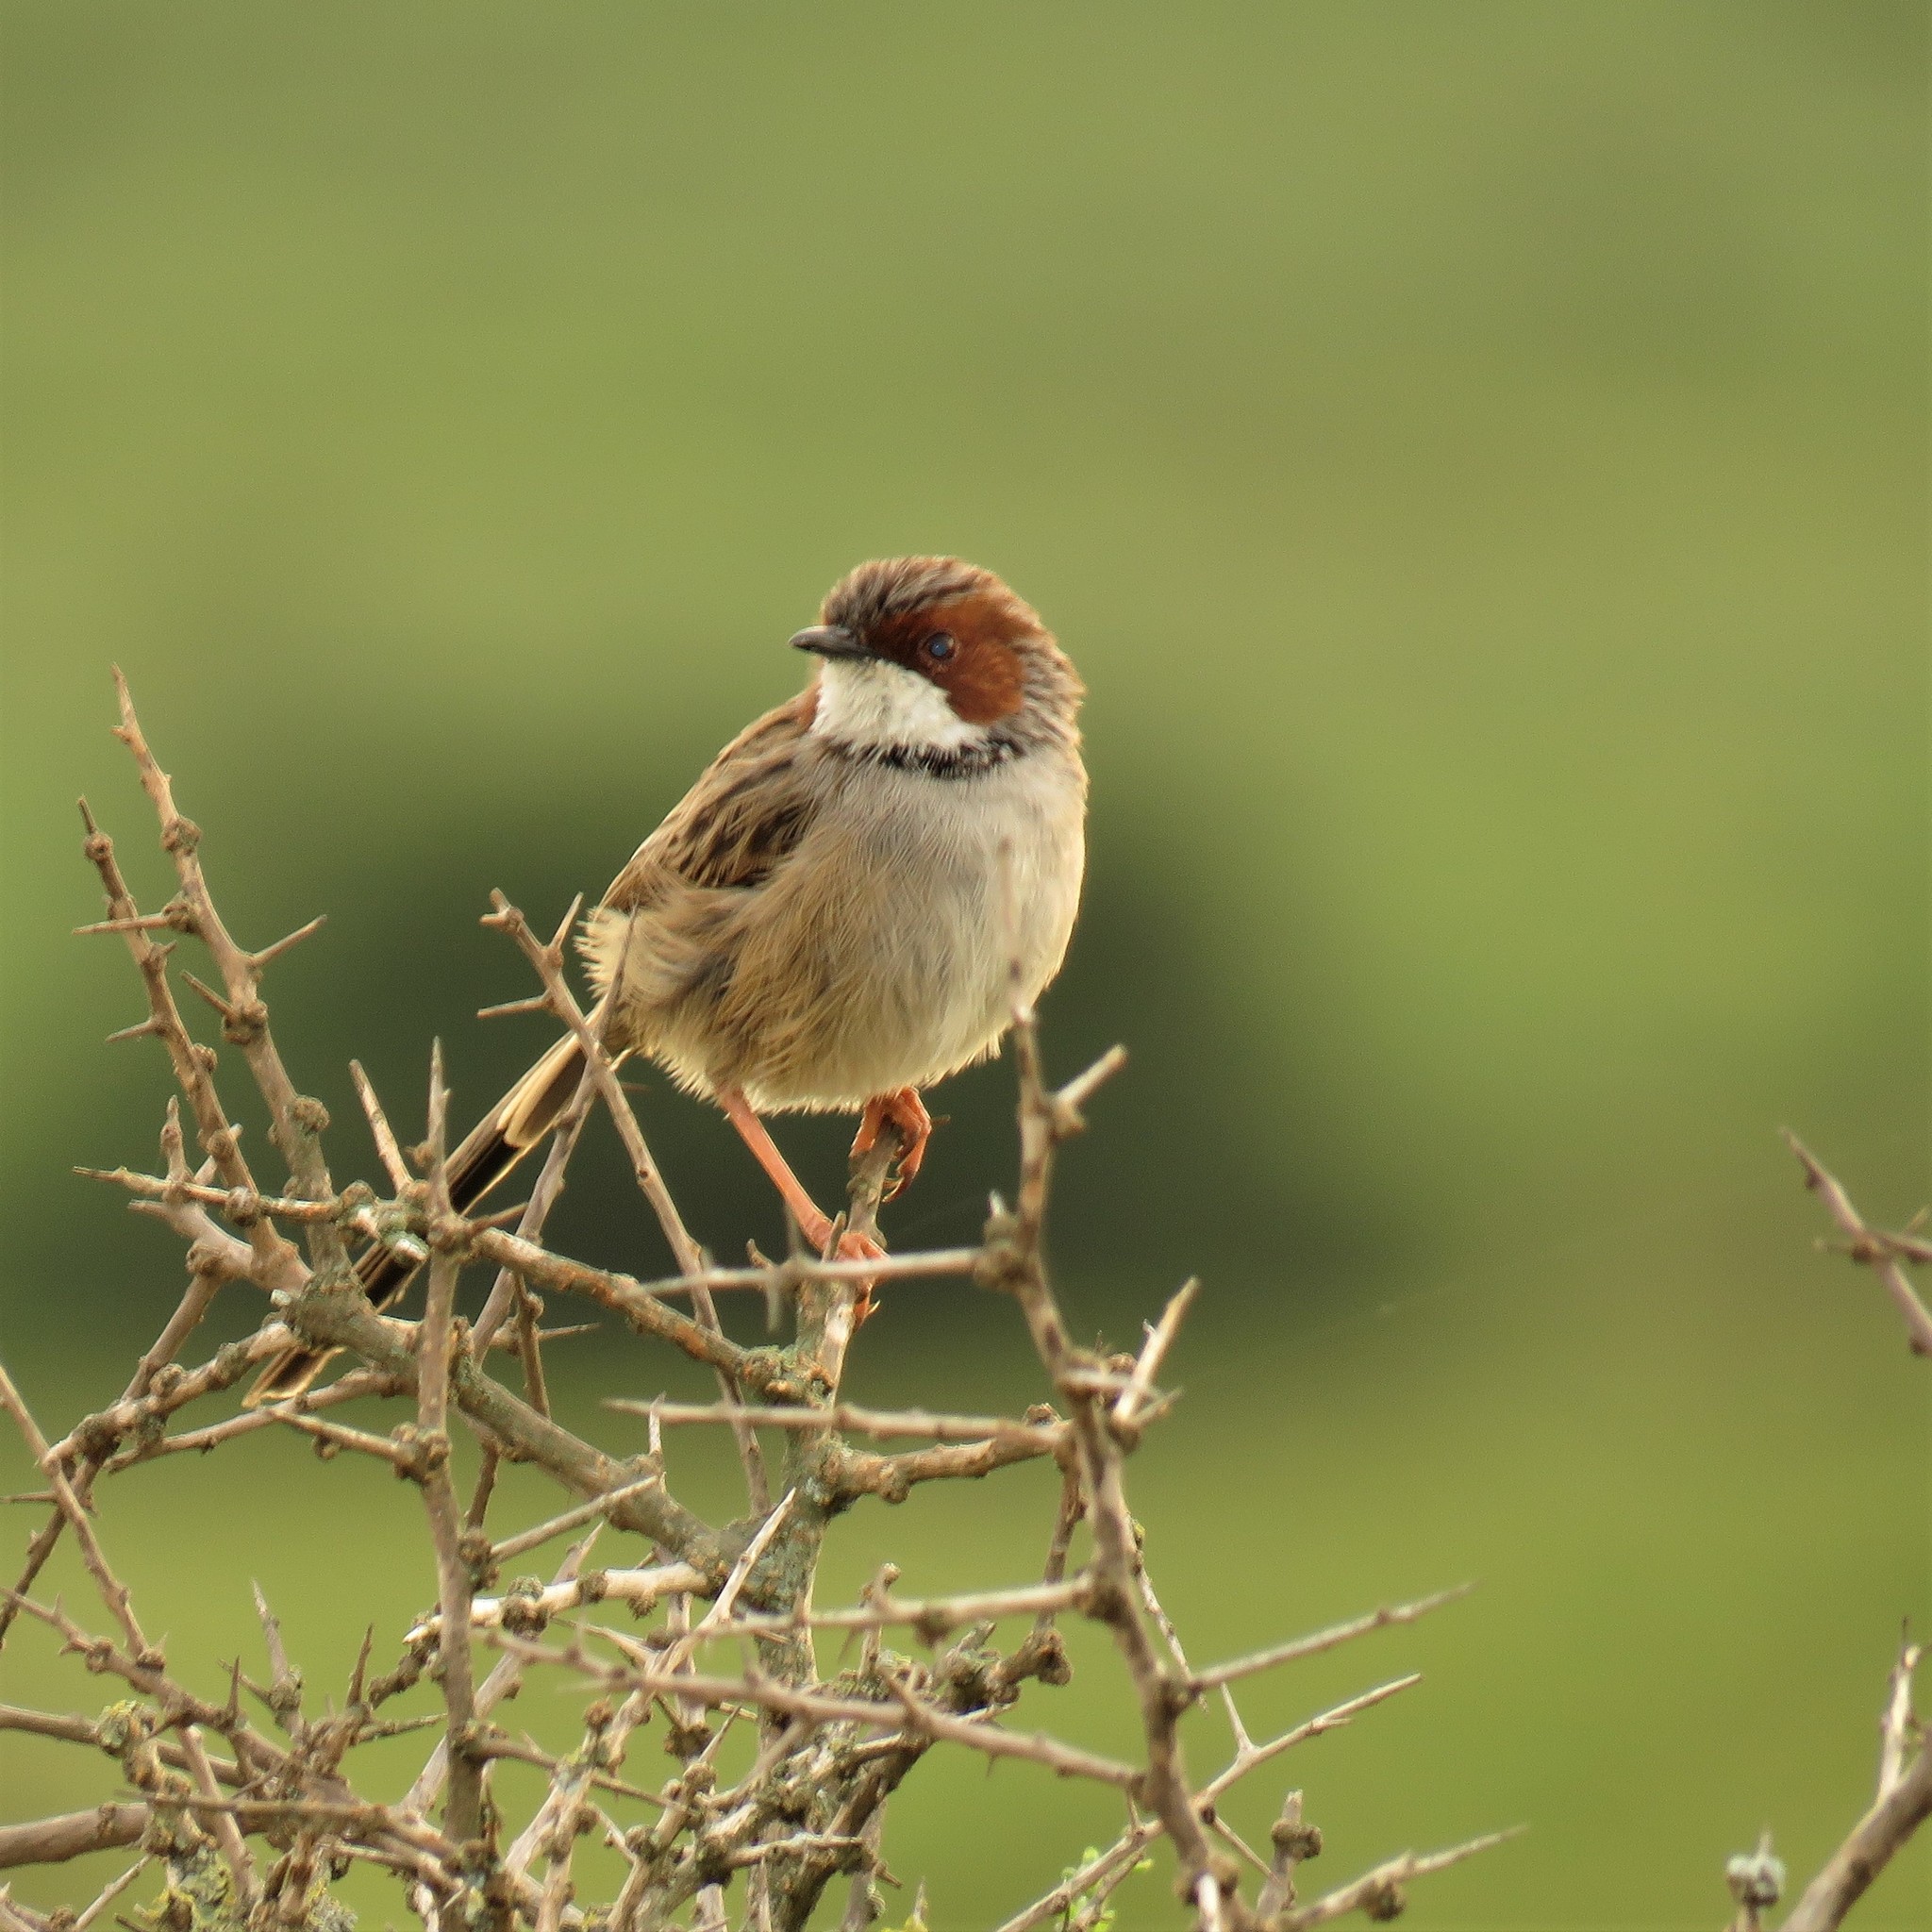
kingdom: Animalia
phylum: Chordata
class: Aves
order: Passeriformes
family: Cisticolidae
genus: Malcorus
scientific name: Malcorus pectoralis
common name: Rufous-eared warbler
